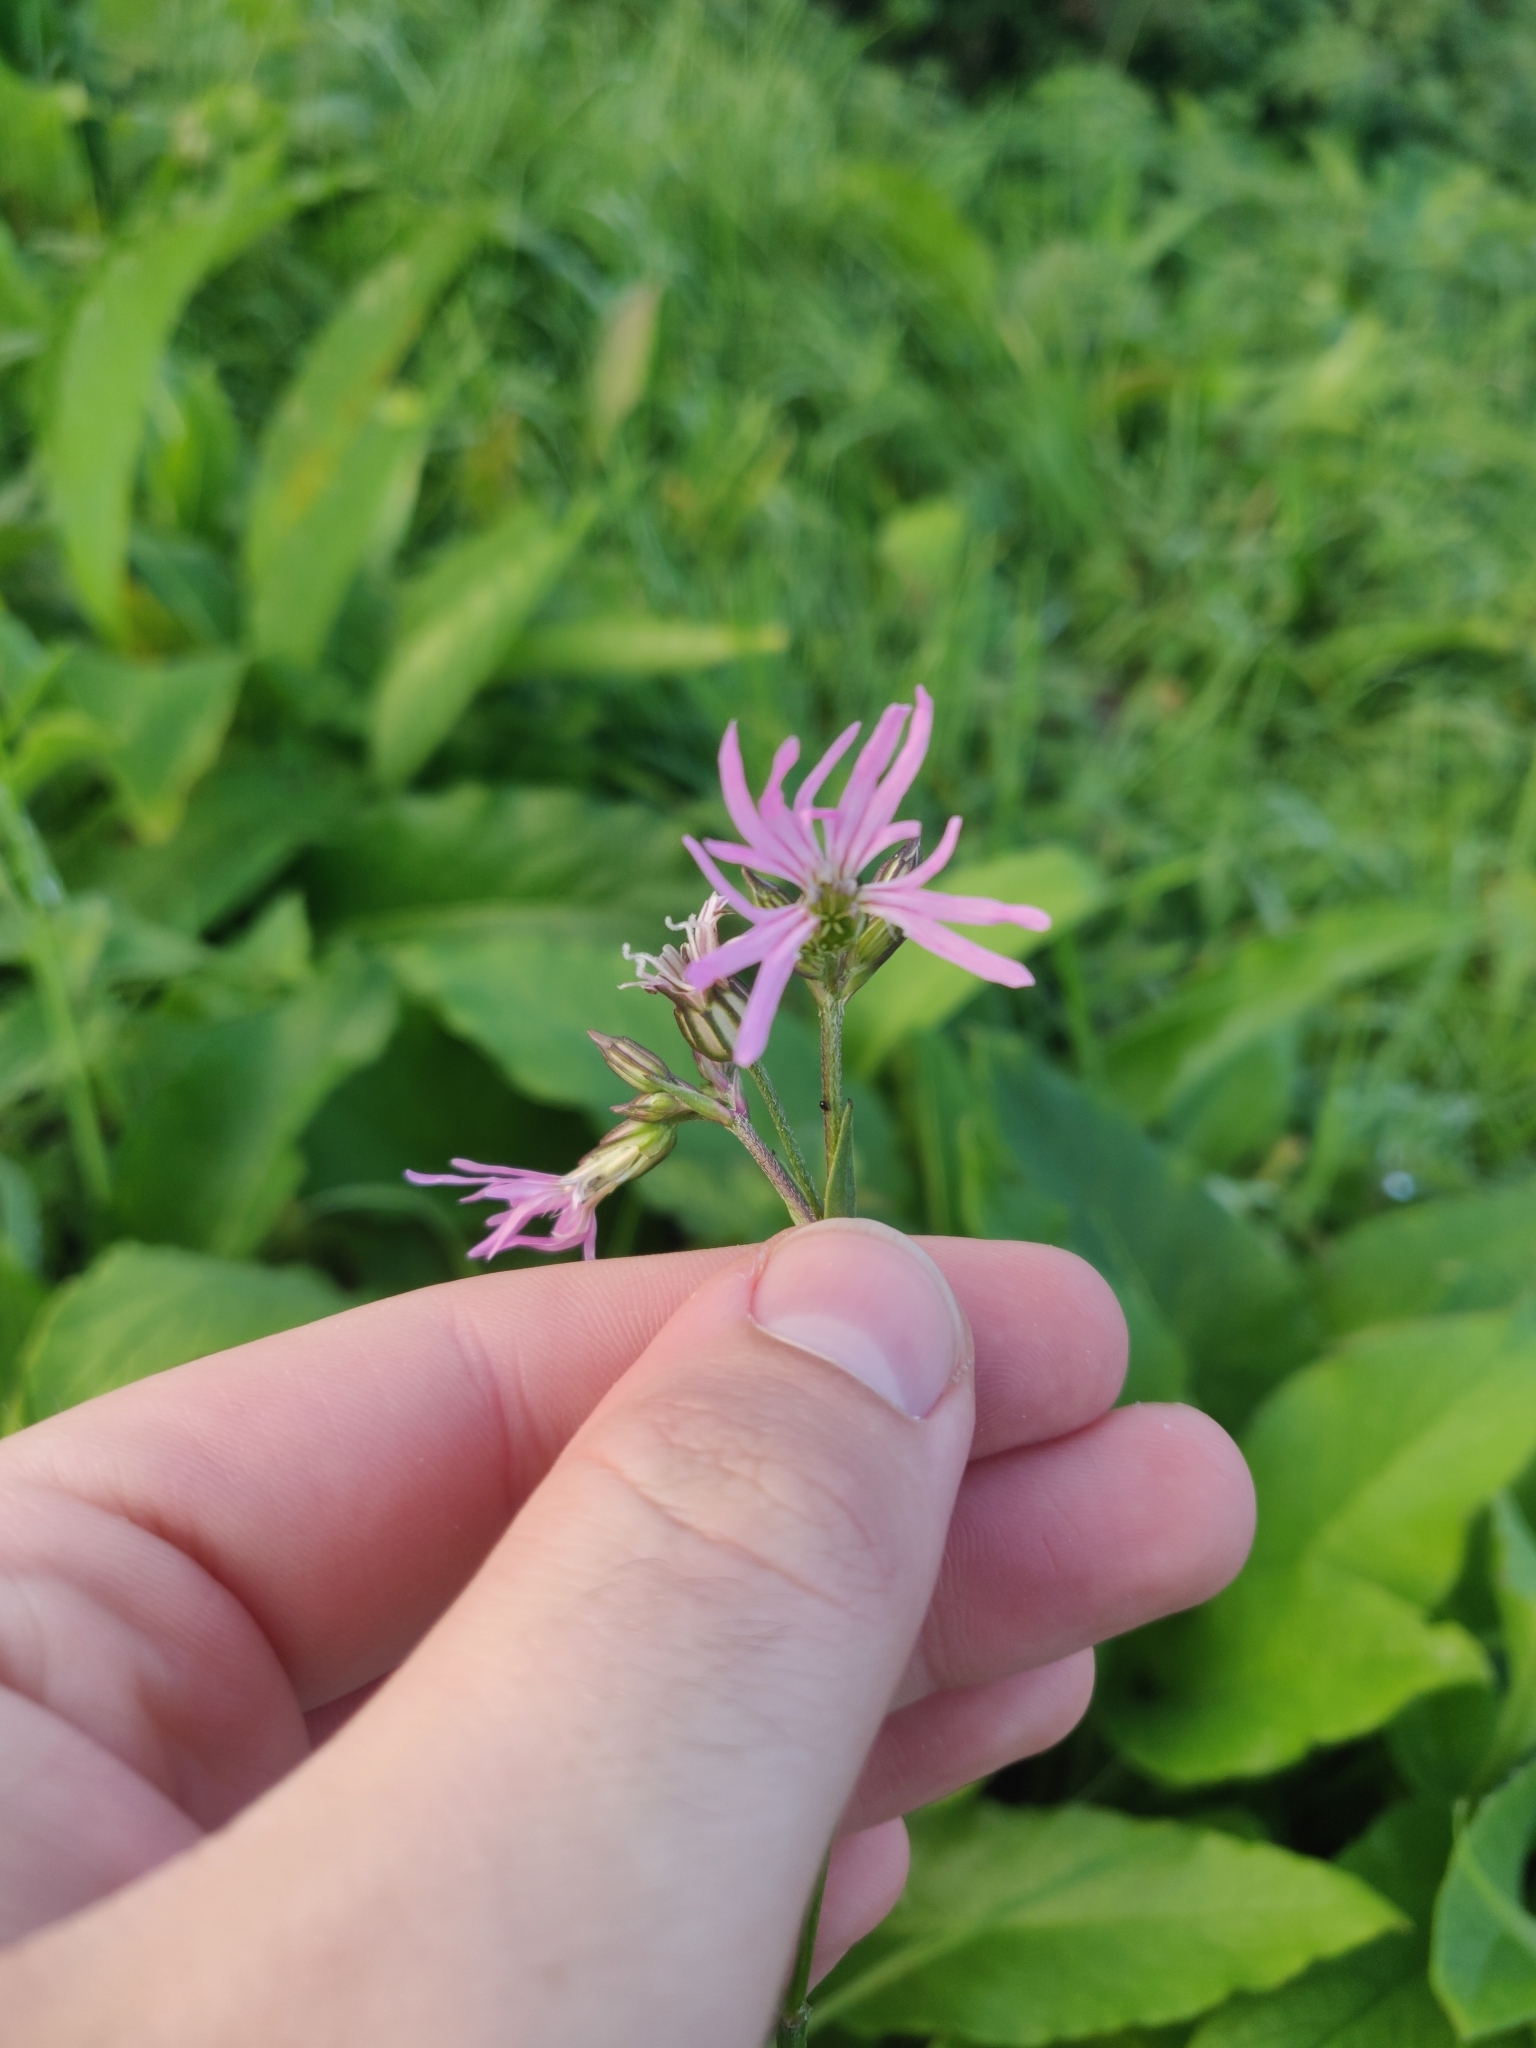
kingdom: Plantae
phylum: Tracheophyta
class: Magnoliopsida
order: Caryophyllales
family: Caryophyllaceae
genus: Silene
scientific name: Silene flos-cuculi
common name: Ragged-robin
